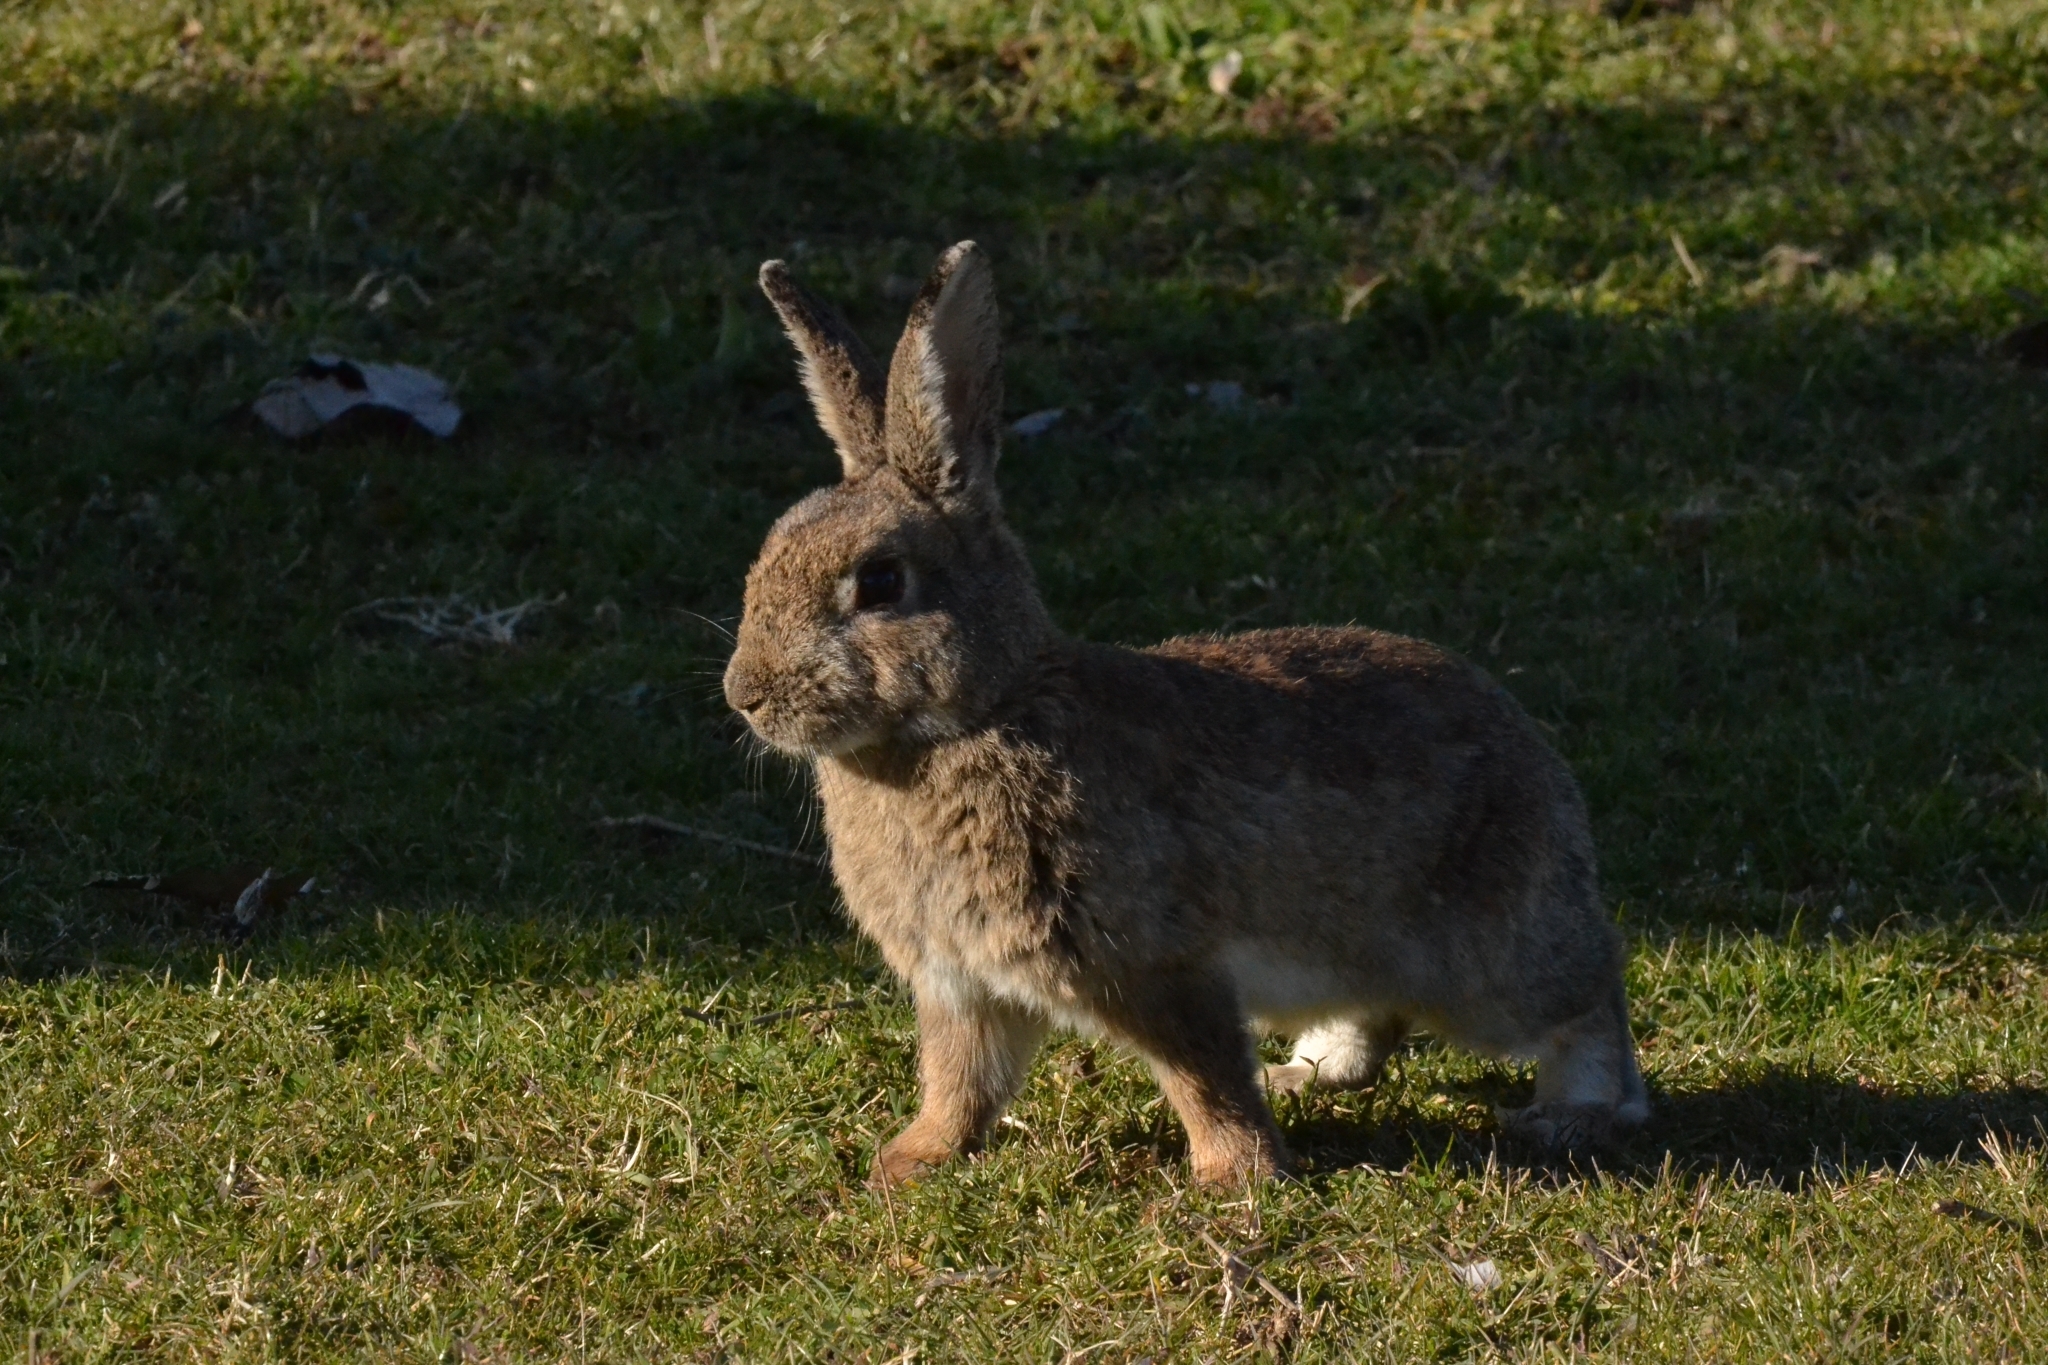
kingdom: Animalia
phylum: Chordata
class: Mammalia
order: Lagomorpha
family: Leporidae
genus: Oryctolagus
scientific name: Oryctolagus cuniculus
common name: European rabbit
